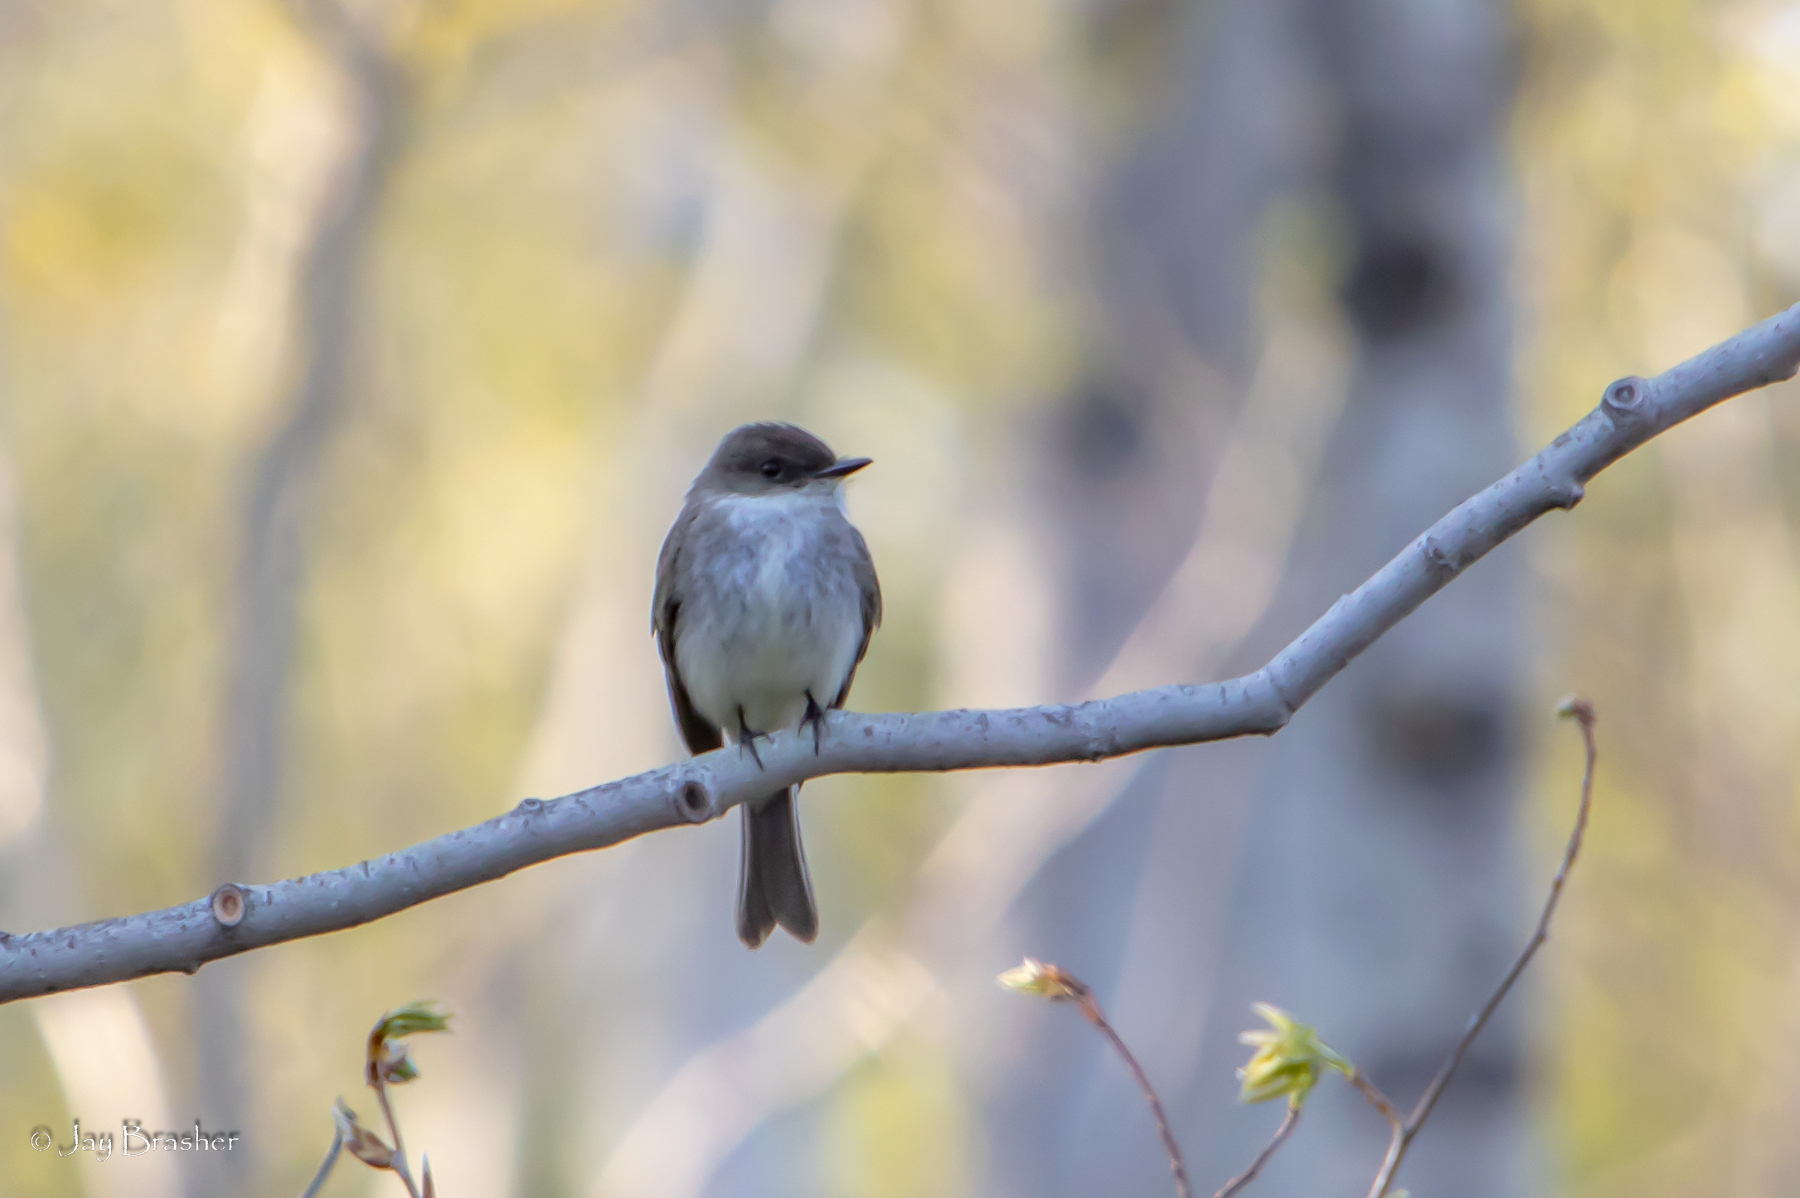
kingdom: Animalia
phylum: Chordata
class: Aves
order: Passeriformes
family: Tyrannidae
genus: Sayornis
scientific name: Sayornis phoebe
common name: Eastern phoebe
